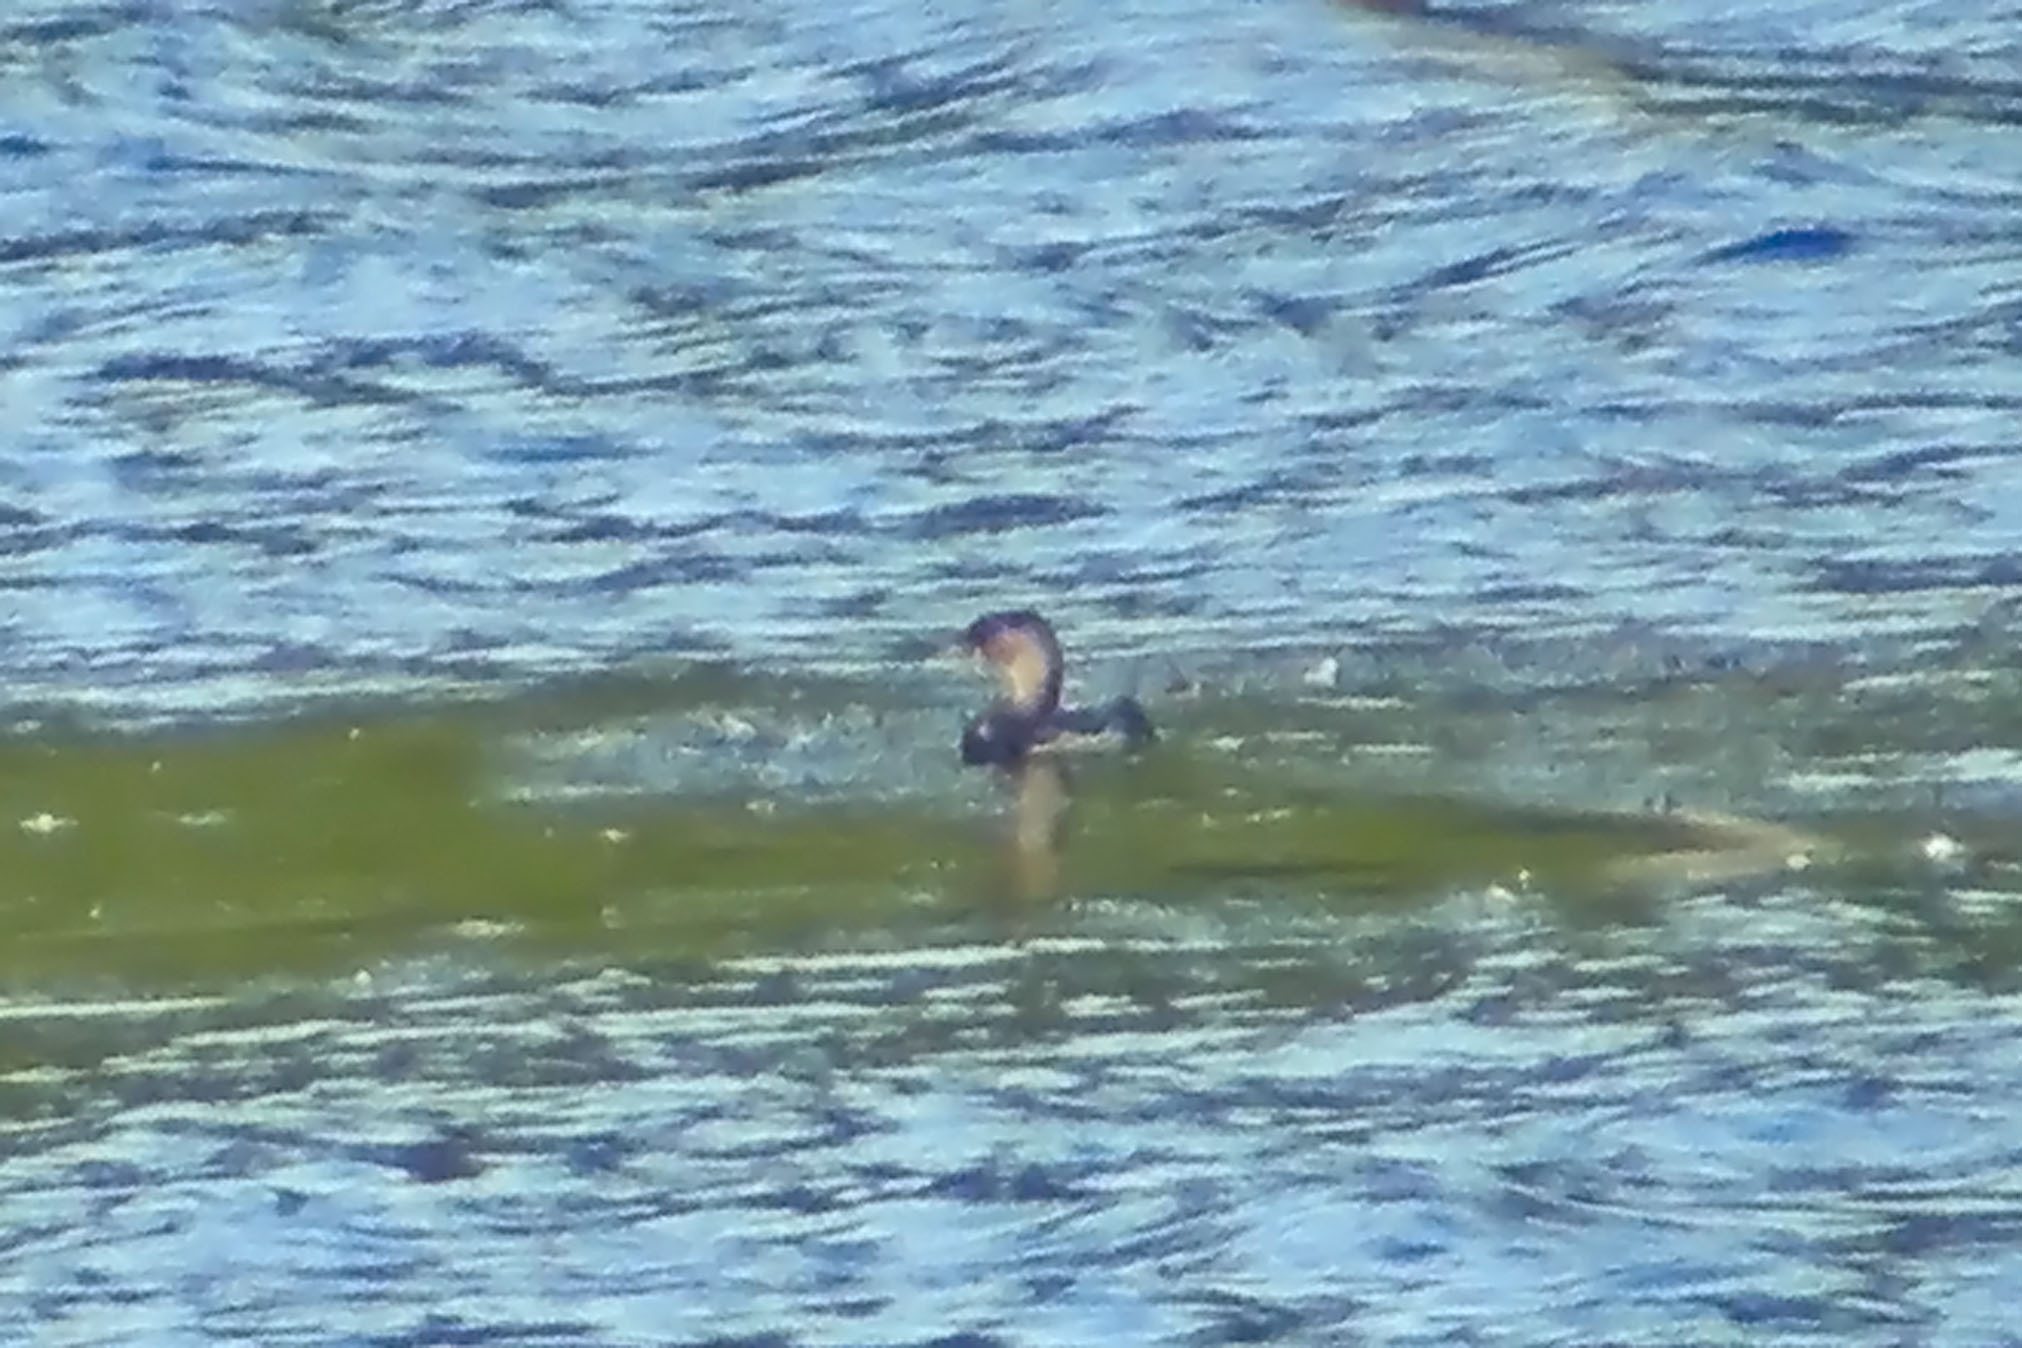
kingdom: Animalia
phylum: Chordata
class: Aves
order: Podicipediformes
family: Podicipedidae
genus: Podilymbus
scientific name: Podilymbus podiceps
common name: Pied-billed grebe
